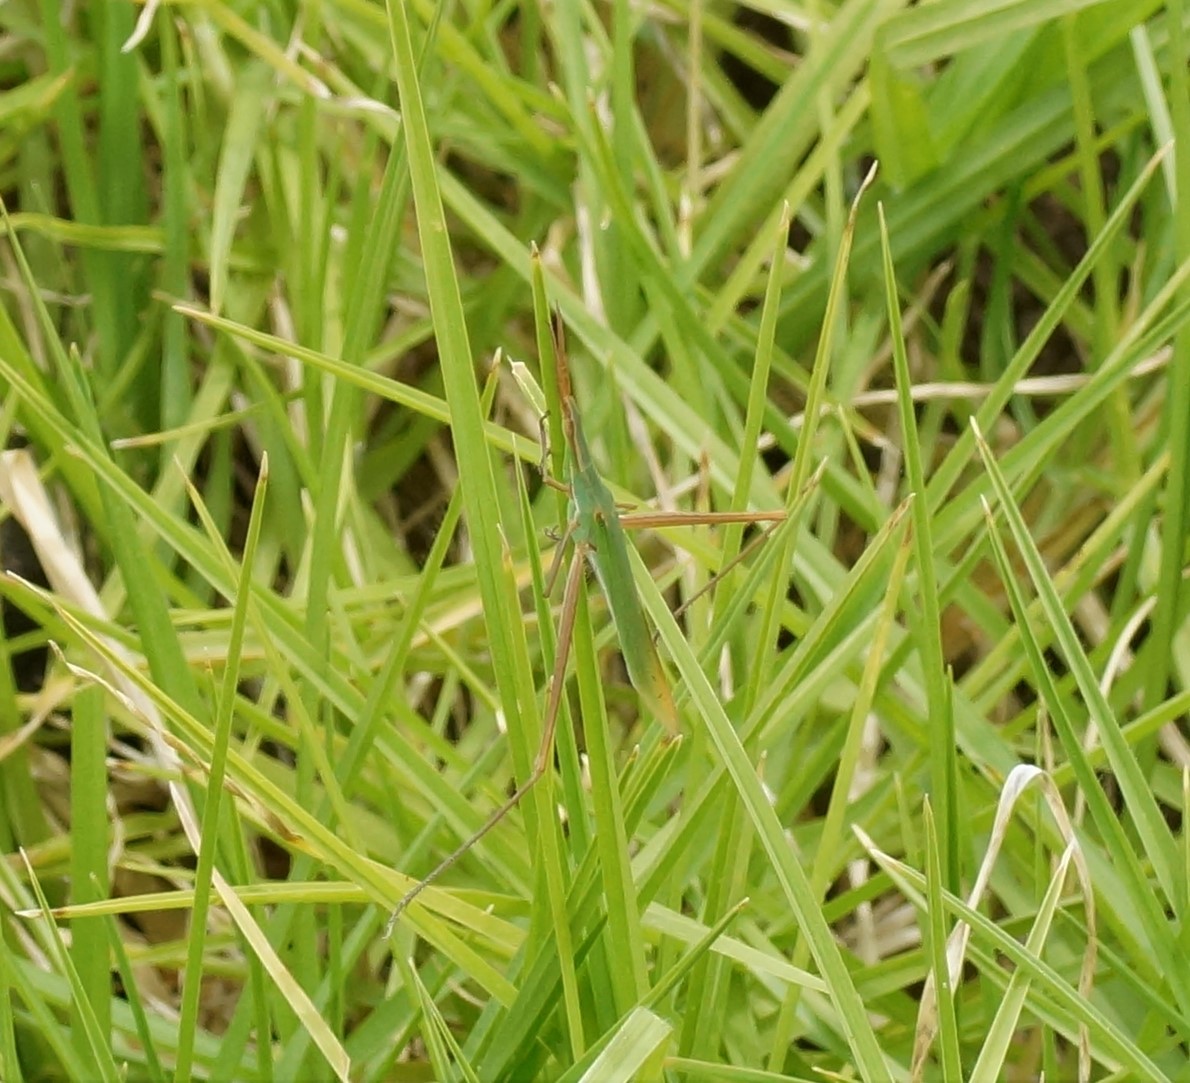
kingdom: Animalia
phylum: Arthropoda
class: Insecta
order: Orthoptera
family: Acrididae
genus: Acrida
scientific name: Acrida conica
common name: Giant green slantface
